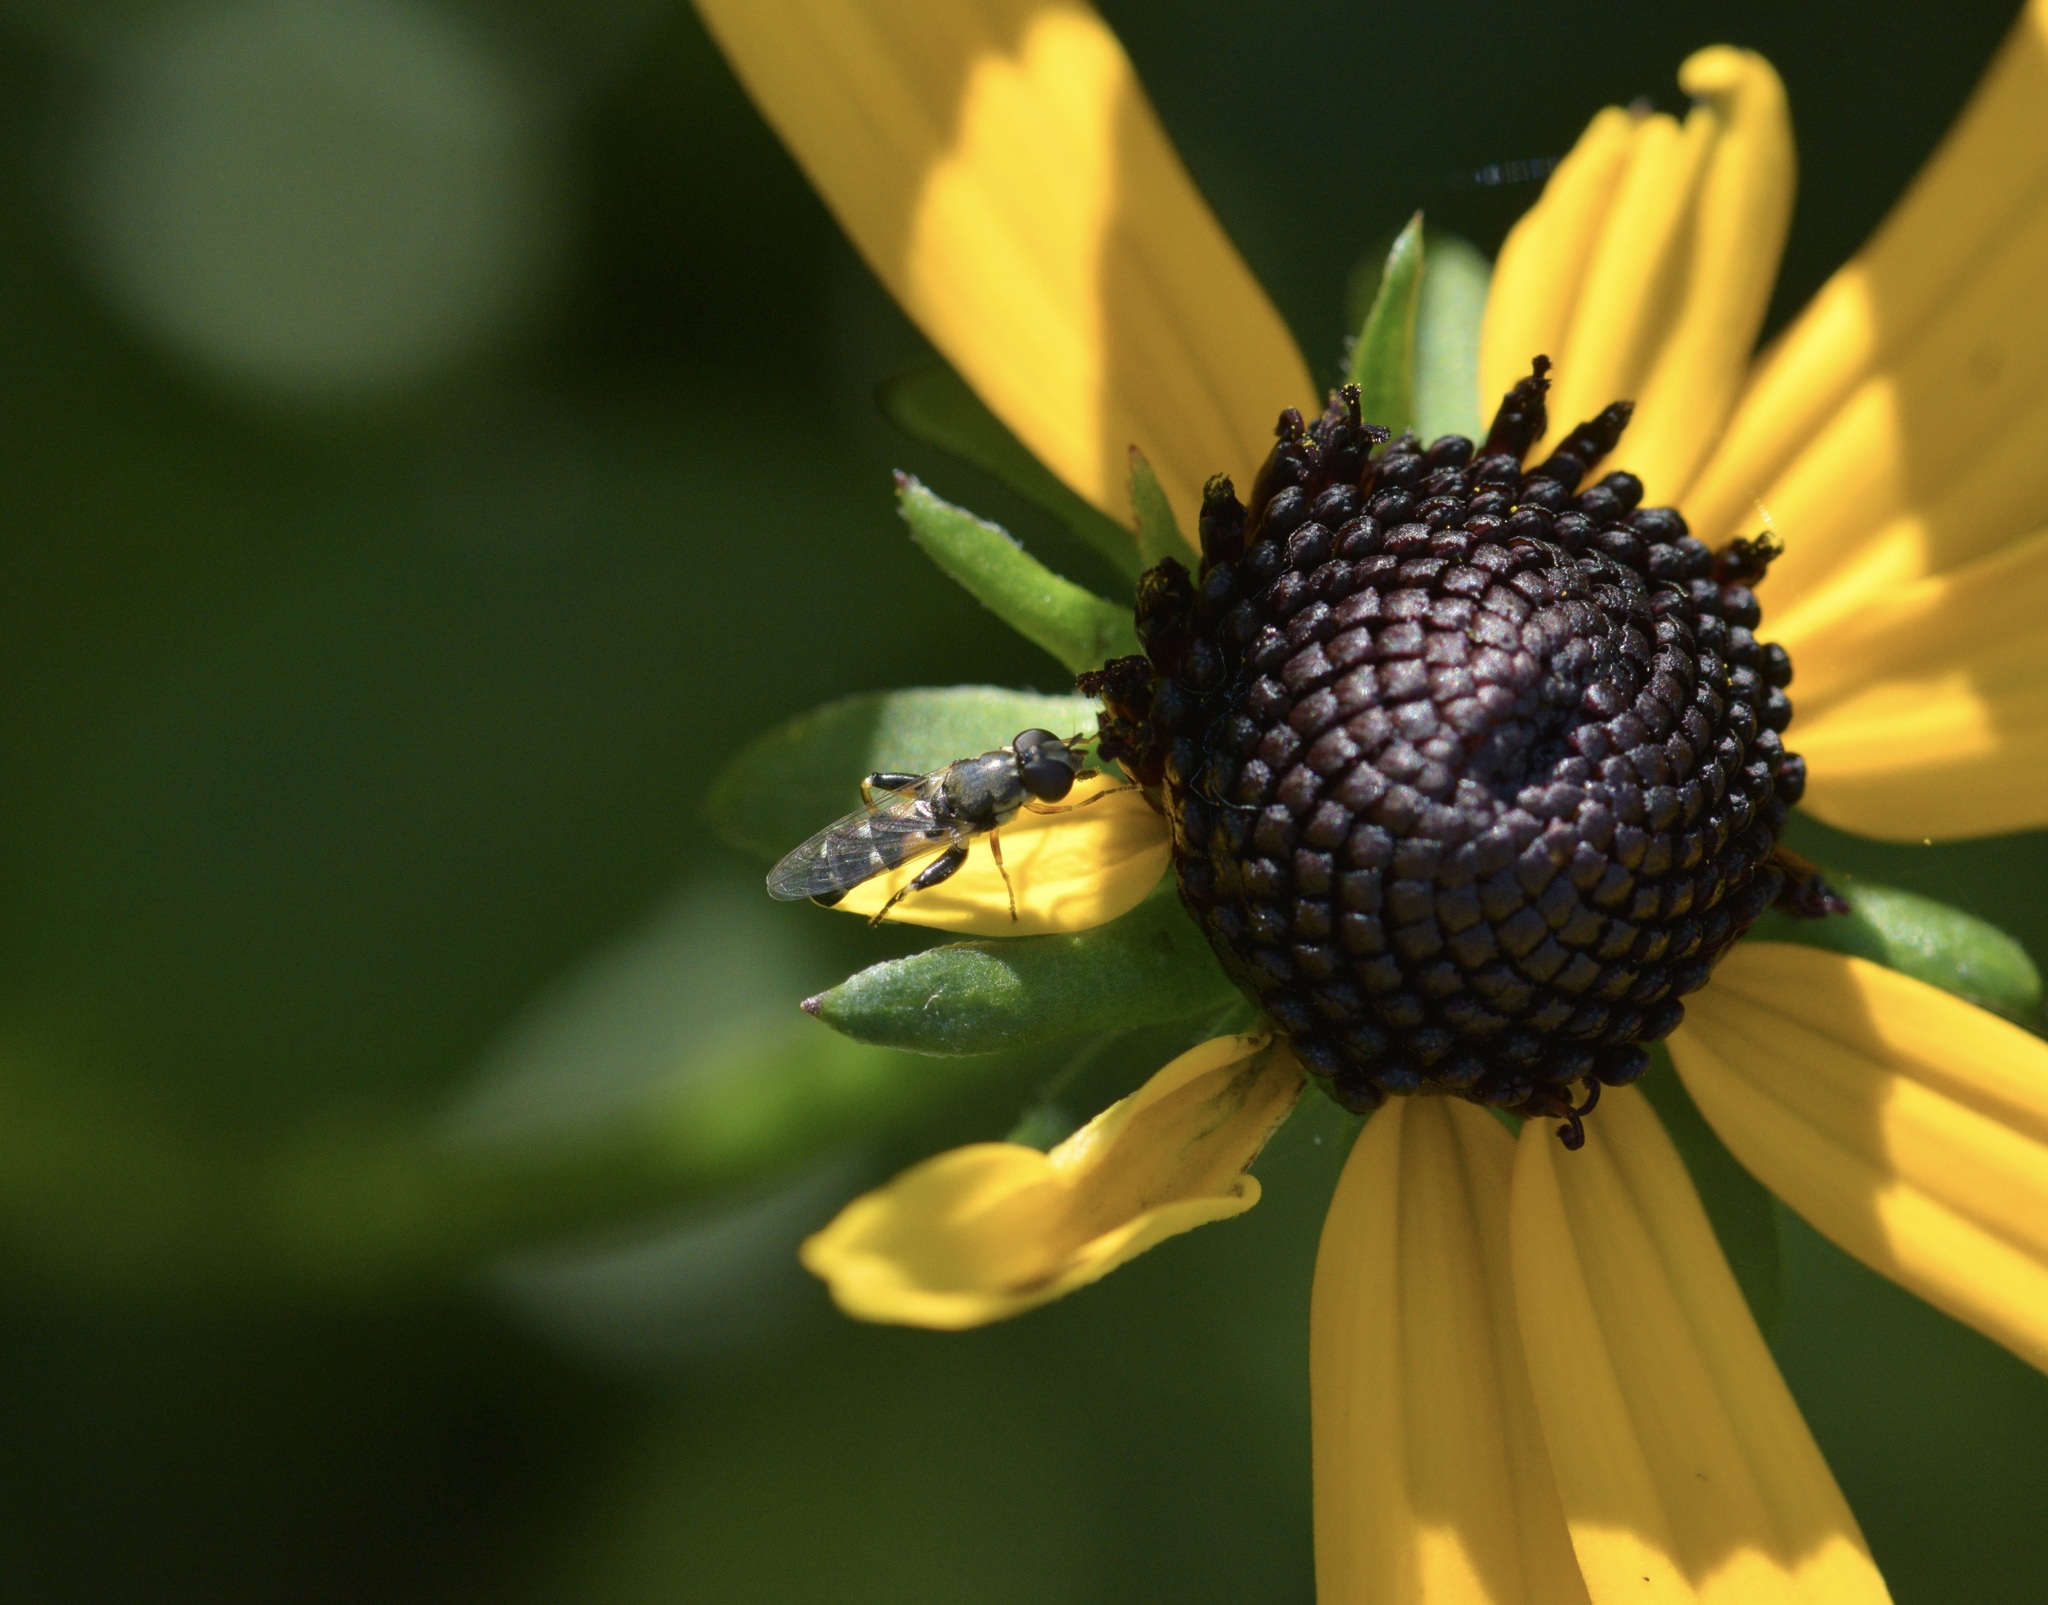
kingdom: Animalia
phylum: Arthropoda
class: Insecta
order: Diptera
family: Syrphidae
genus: Syritta
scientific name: Syritta pipiens
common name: Hover fly
